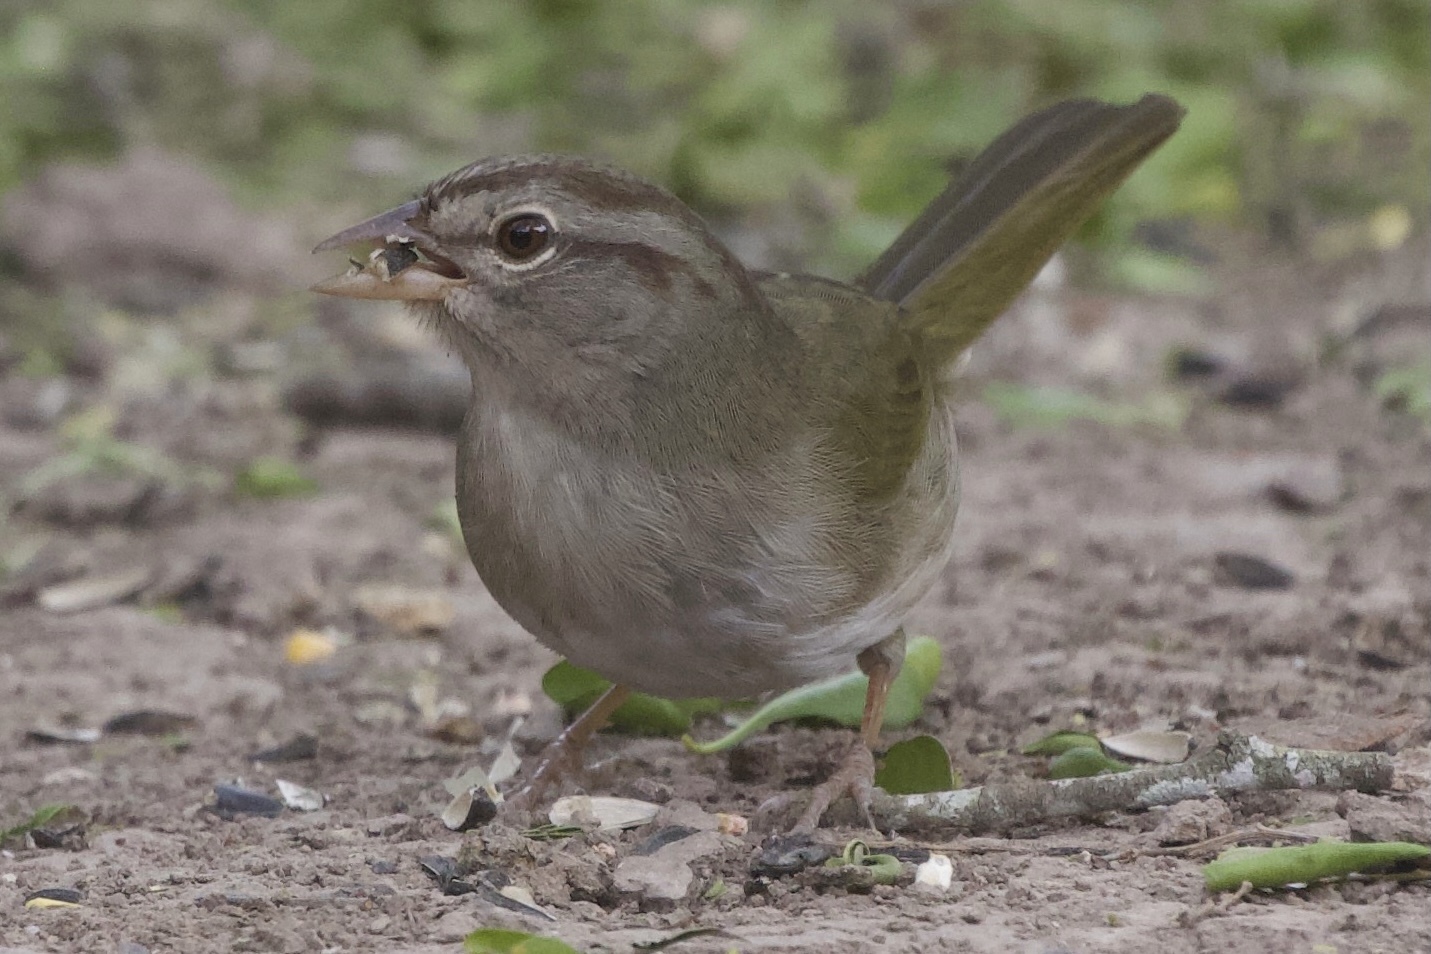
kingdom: Animalia
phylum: Chordata
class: Aves
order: Passeriformes
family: Passerellidae
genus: Arremonops
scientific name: Arremonops rufivirgatus
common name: Olive sparrow
